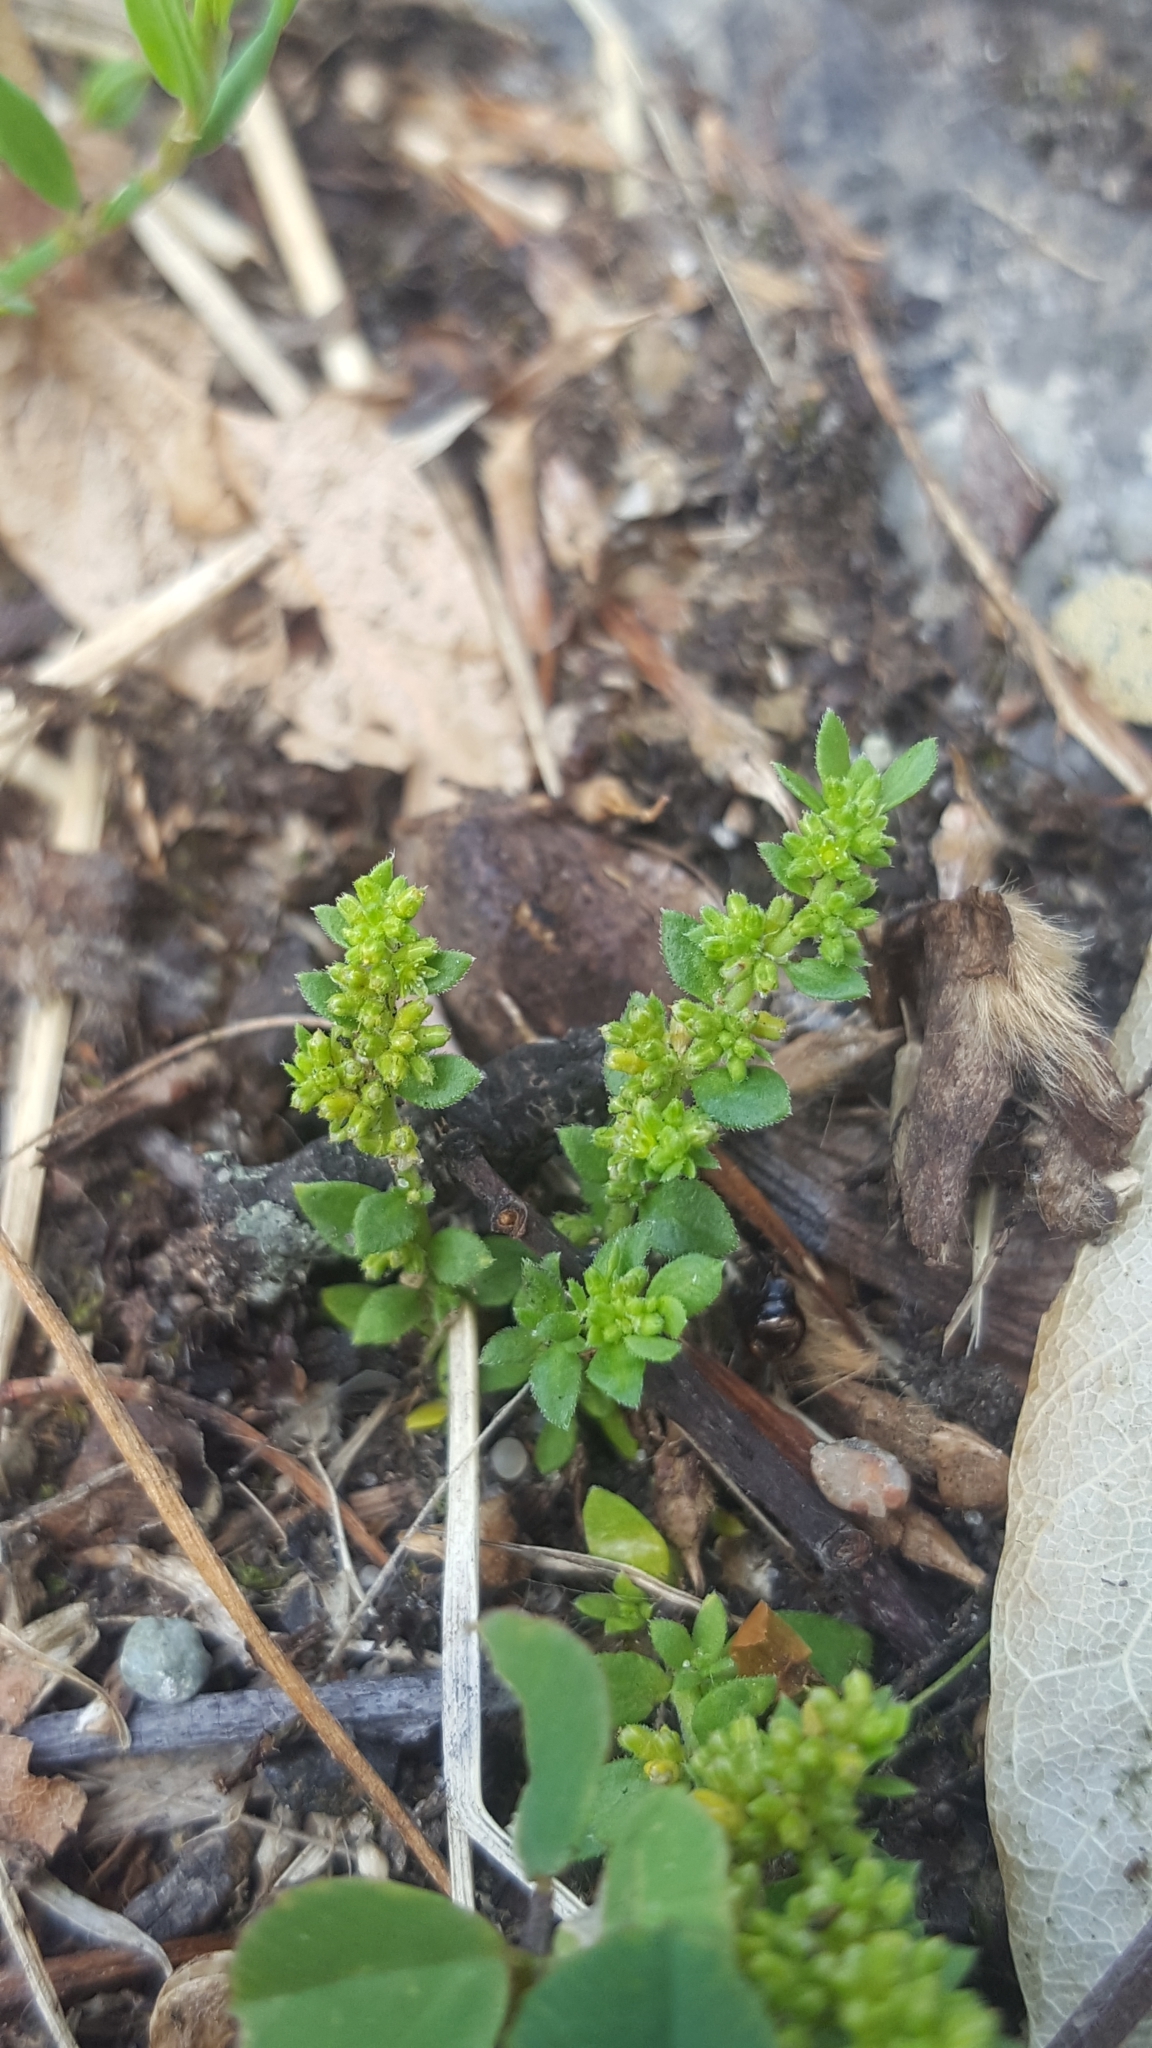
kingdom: Plantae
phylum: Tracheophyta
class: Magnoliopsida
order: Caryophyllales
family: Caryophyllaceae
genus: Herniaria
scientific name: Herniaria glabra
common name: Smooth rupturewort
